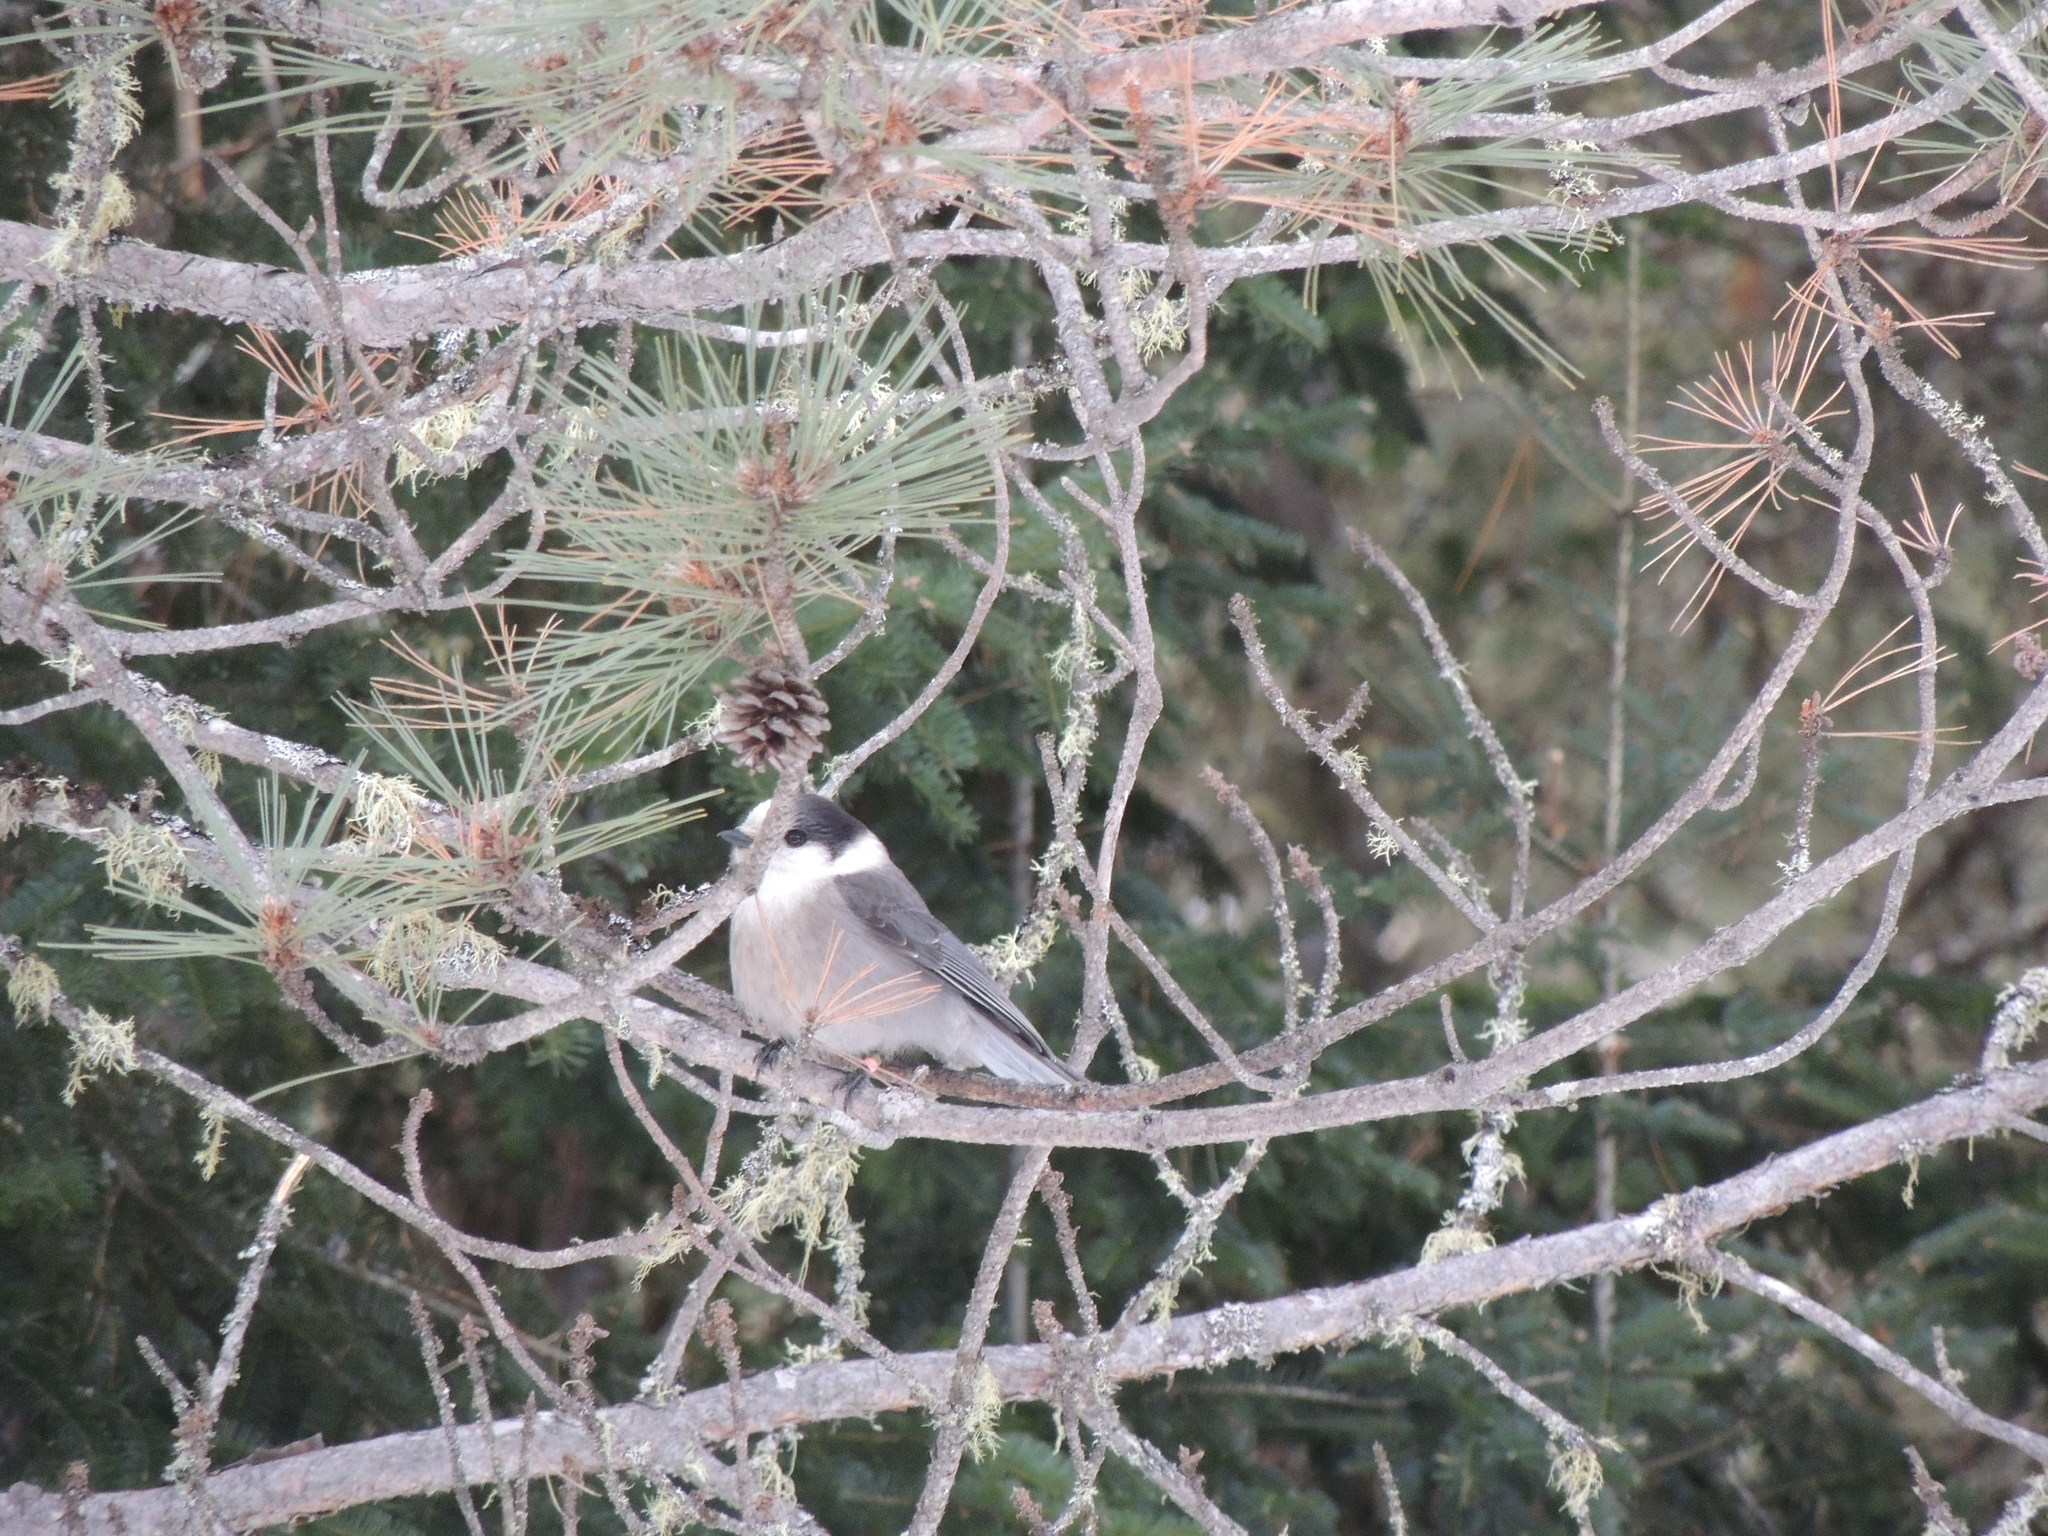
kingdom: Animalia
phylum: Chordata
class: Aves
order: Passeriformes
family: Corvidae
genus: Perisoreus
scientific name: Perisoreus canadensis
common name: Gray jay
